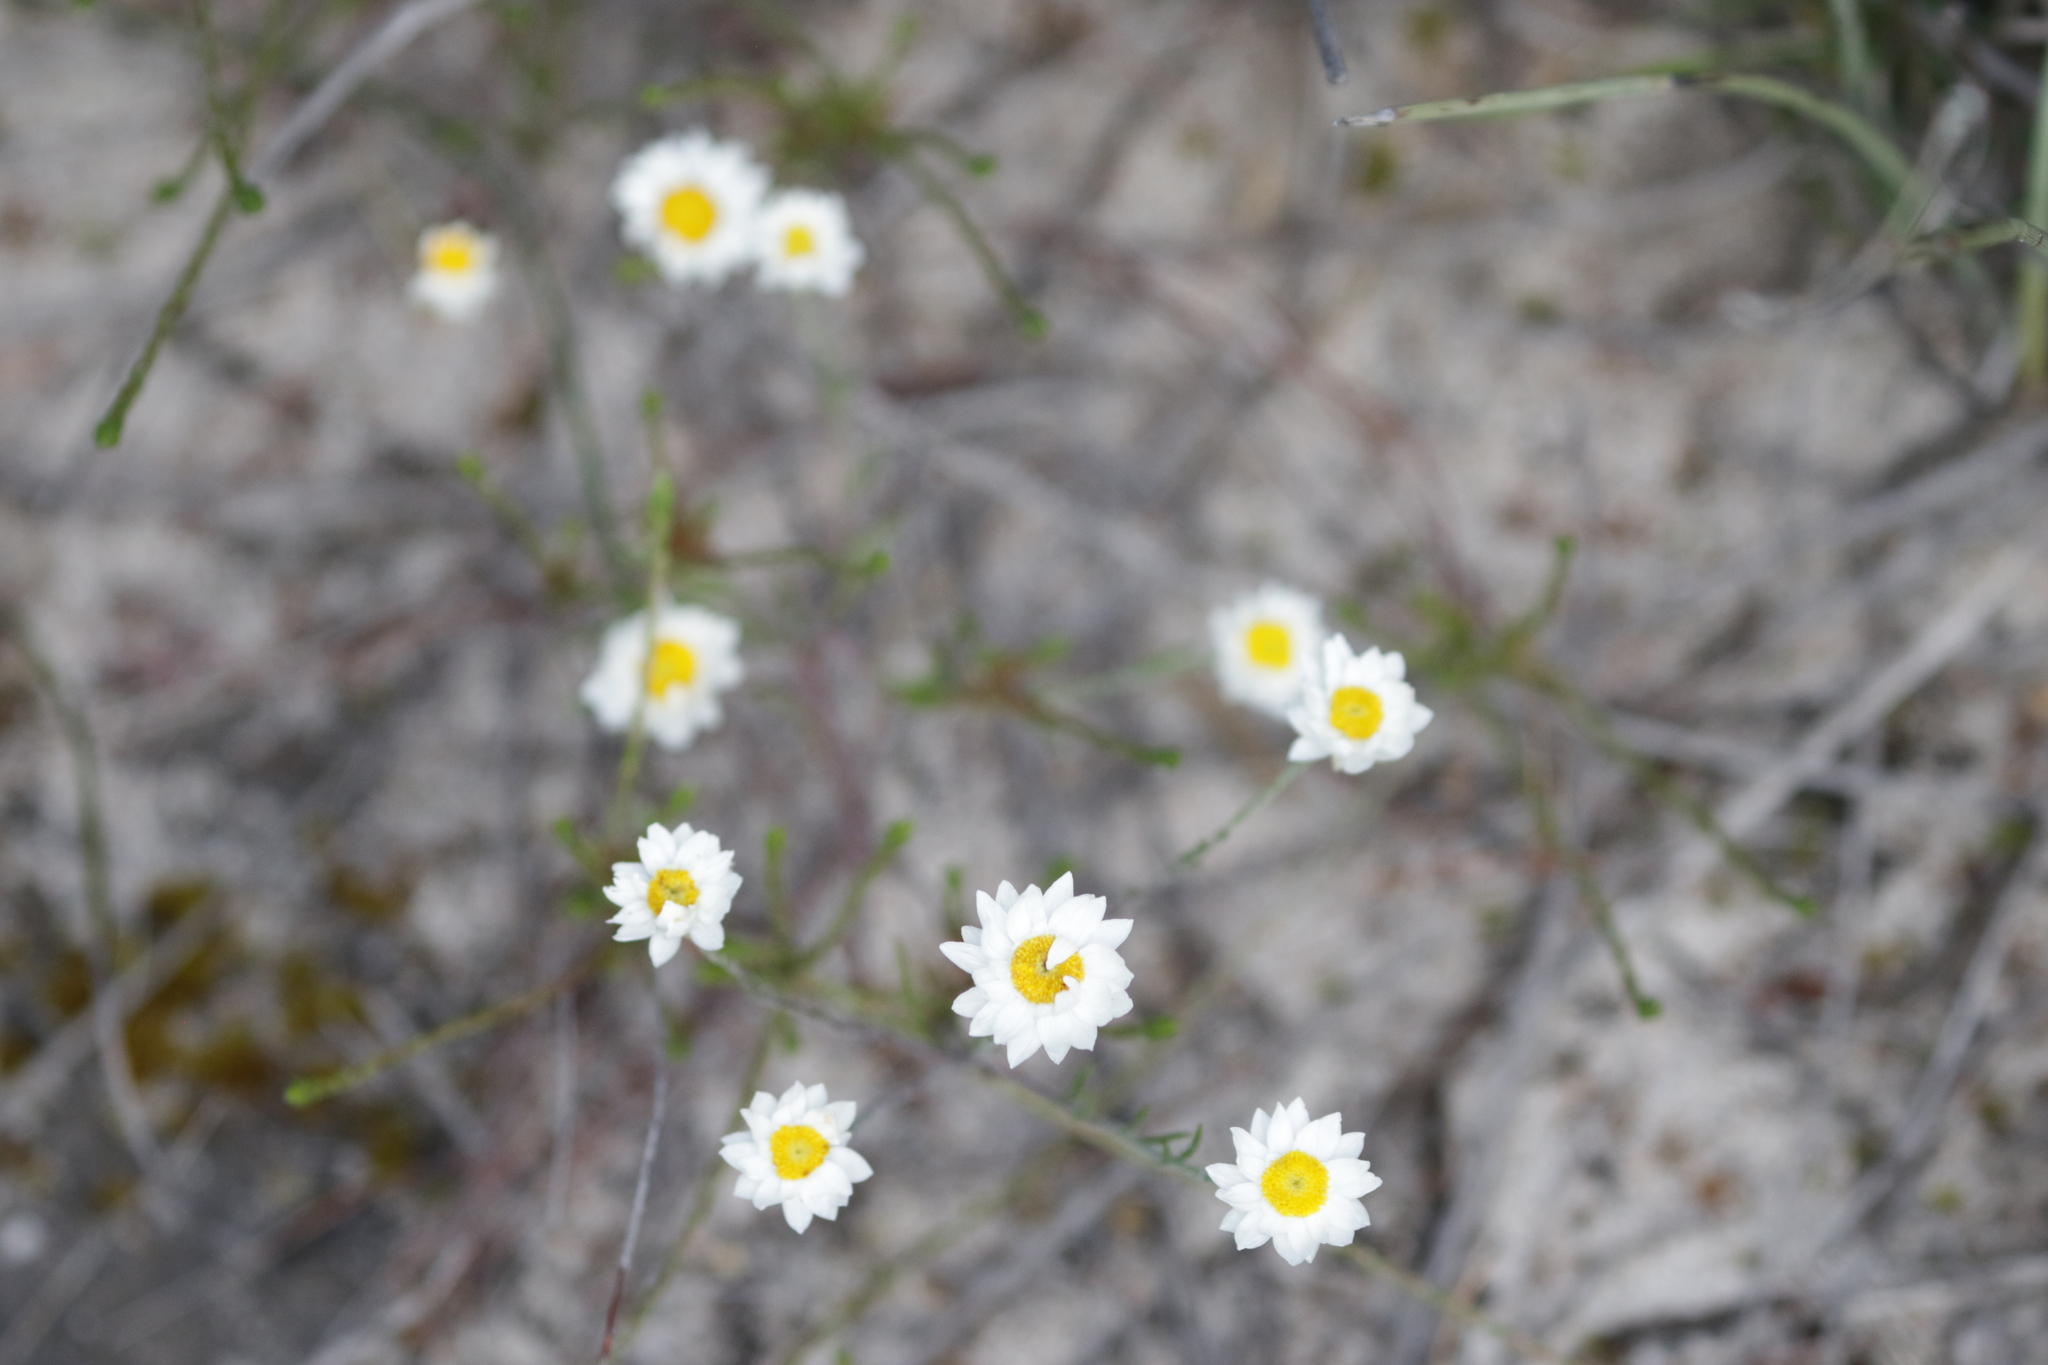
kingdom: Plantae
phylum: Tracheophyta
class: Magnoliopsida
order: Asterales
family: Asteraceae
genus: Hyalosperma
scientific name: Hyalosperma cotula
